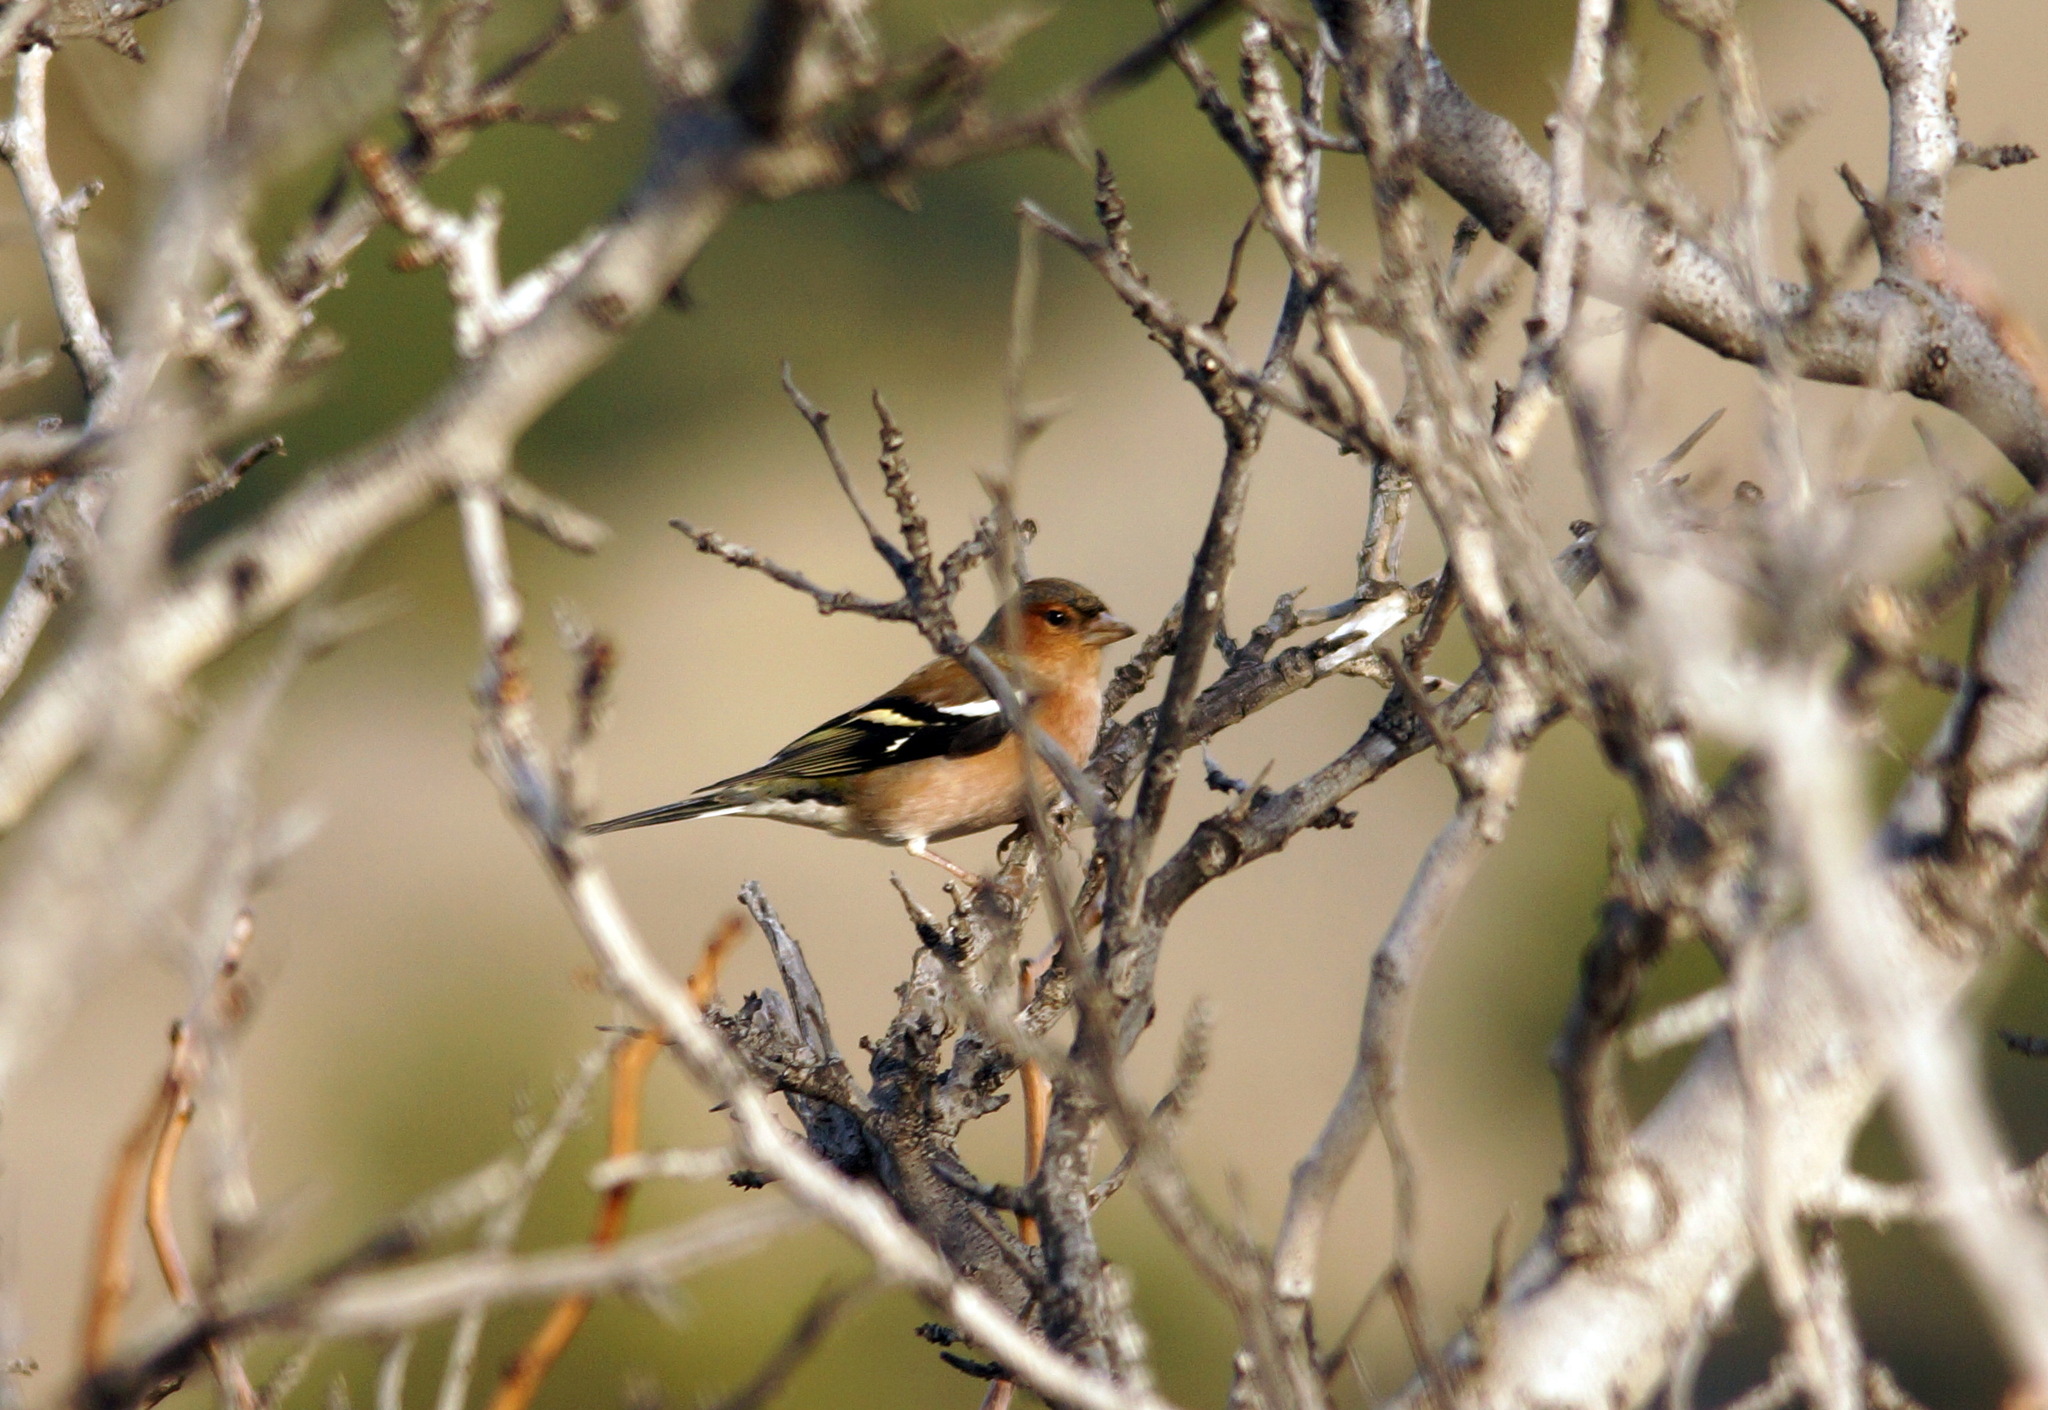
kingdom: Animalia
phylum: Chordata
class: Aves
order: Passeriformes
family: Fringillidae
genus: Fringilla
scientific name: Fringilla coelebs
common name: Common chaffinch
